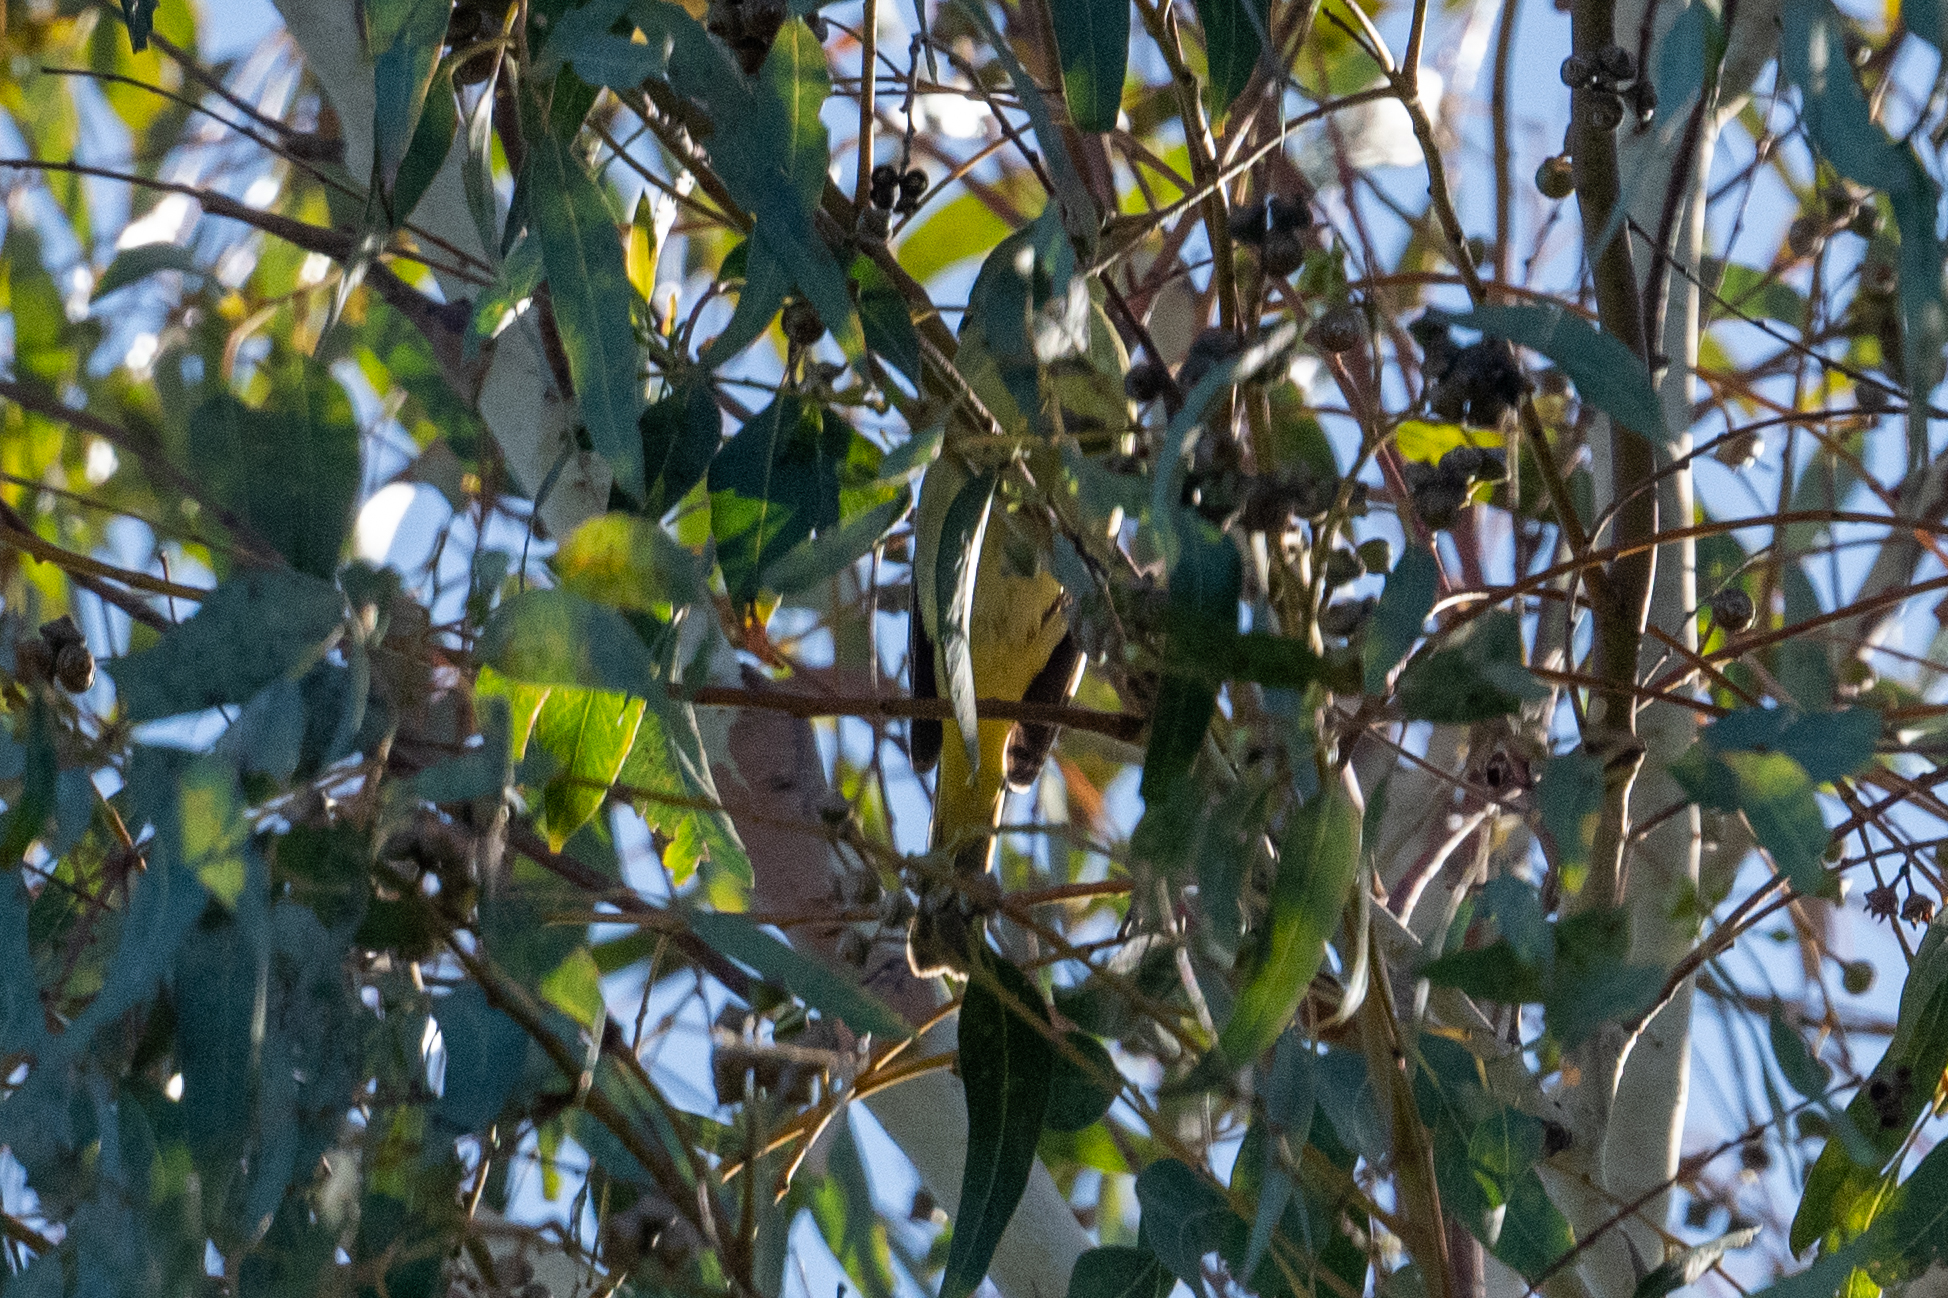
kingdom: Animalia
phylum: Chordata
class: Aves
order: Passeriformes
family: Cardinalidae
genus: Piranga
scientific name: Piranga ludoviciana
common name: Western tanager
